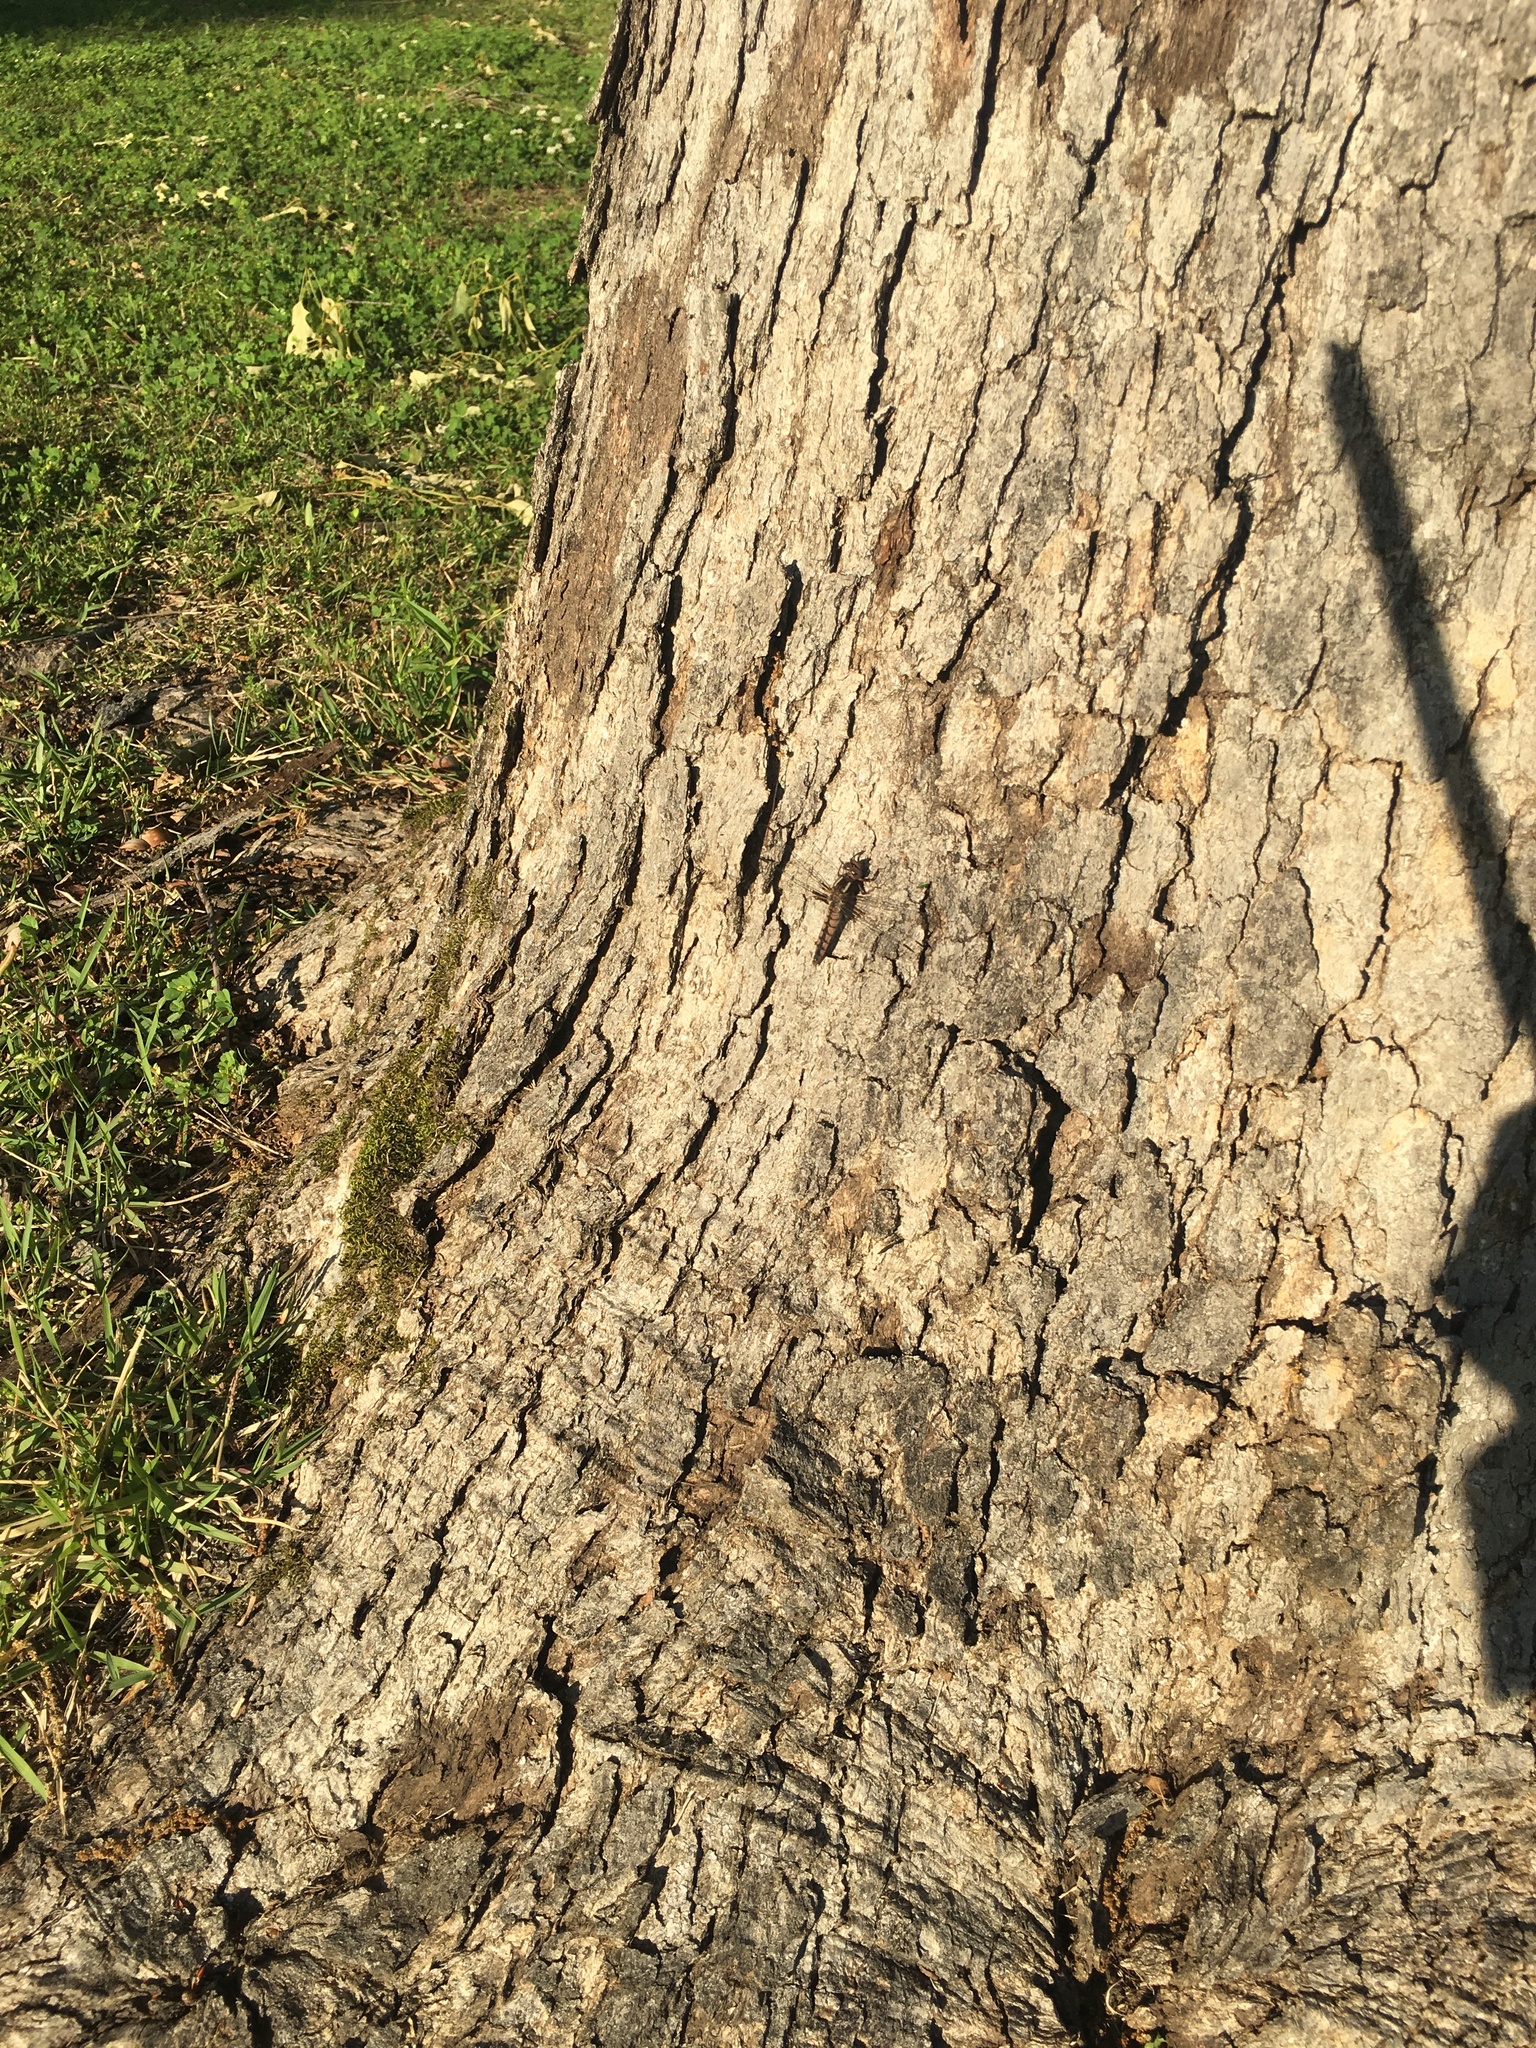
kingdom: Animalia
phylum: Arthropoda
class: Insecta
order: Odonata
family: Libellulidae
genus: Ladona
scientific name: Ladona deplanata
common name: Blue corporal
